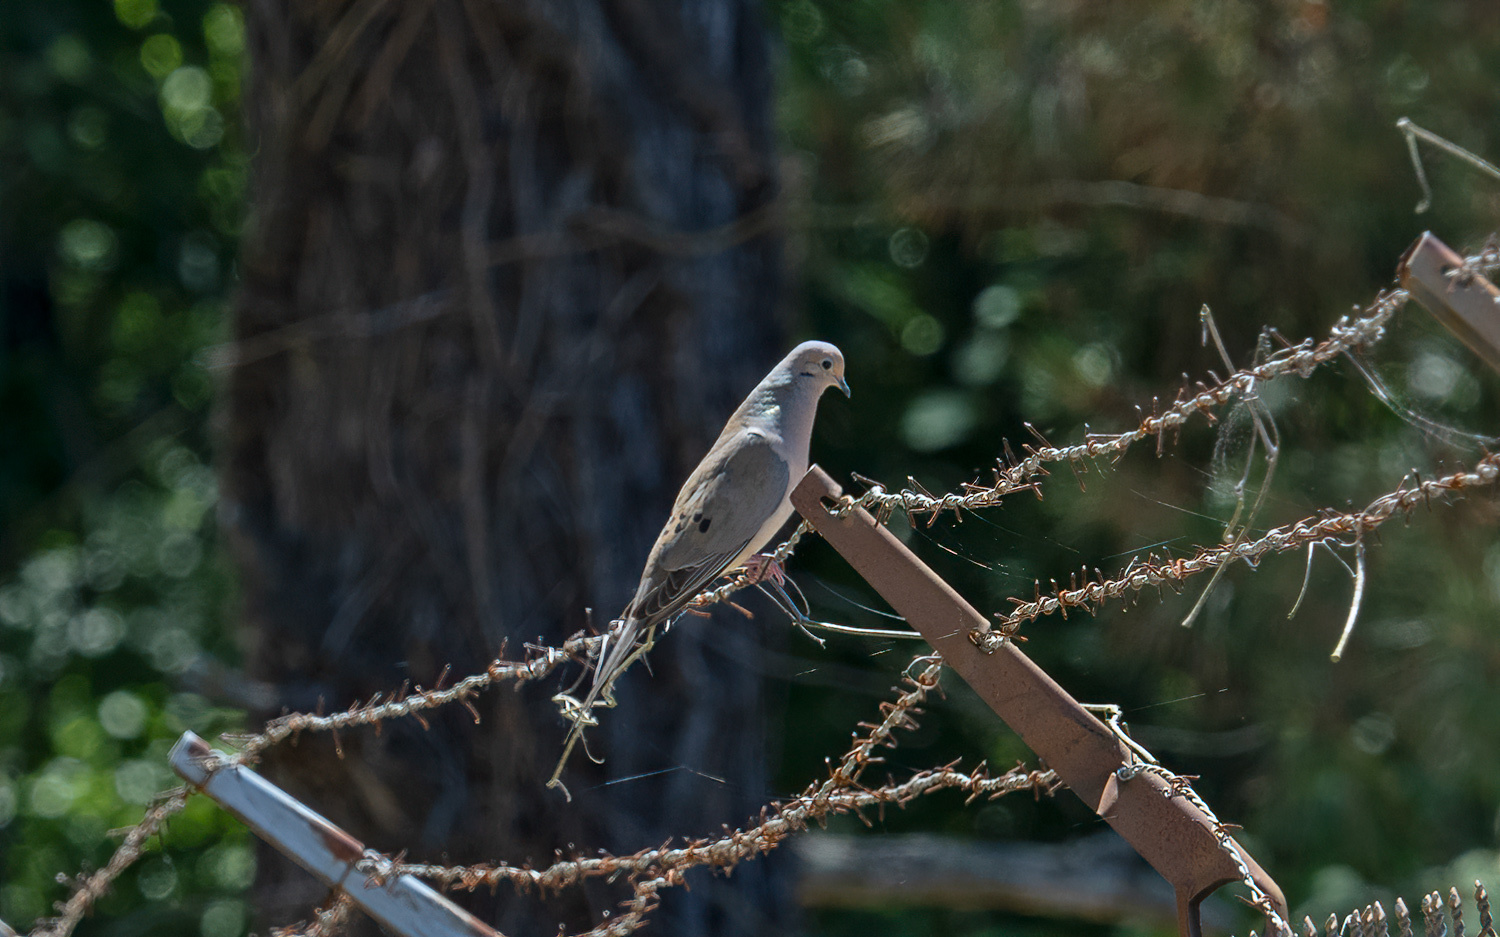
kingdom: Animalia
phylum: Chordata
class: Aves
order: Columbiformes
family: Columbidae
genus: Zenaida
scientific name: Zenaida macroura
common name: Mourning dove
